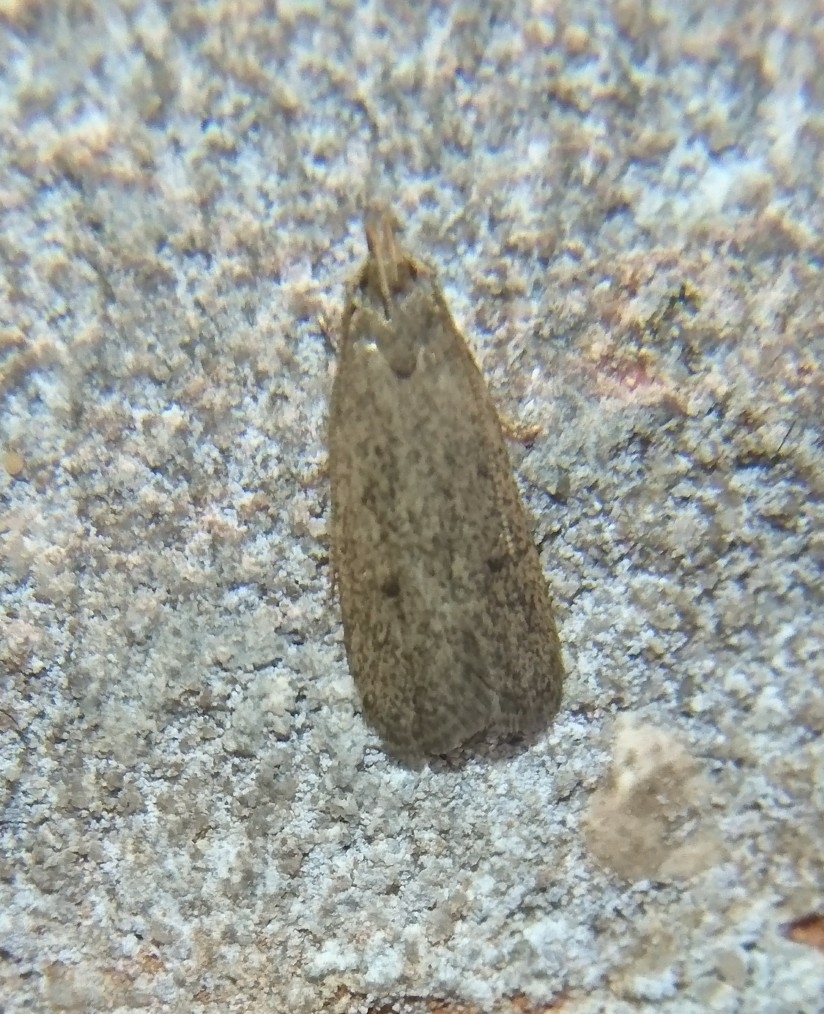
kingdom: Animalia
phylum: Arthropoda
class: Insecta
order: Lepidoptera
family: Autostichidae
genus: Glyphidocera
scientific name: Glyphidocera juniperella
